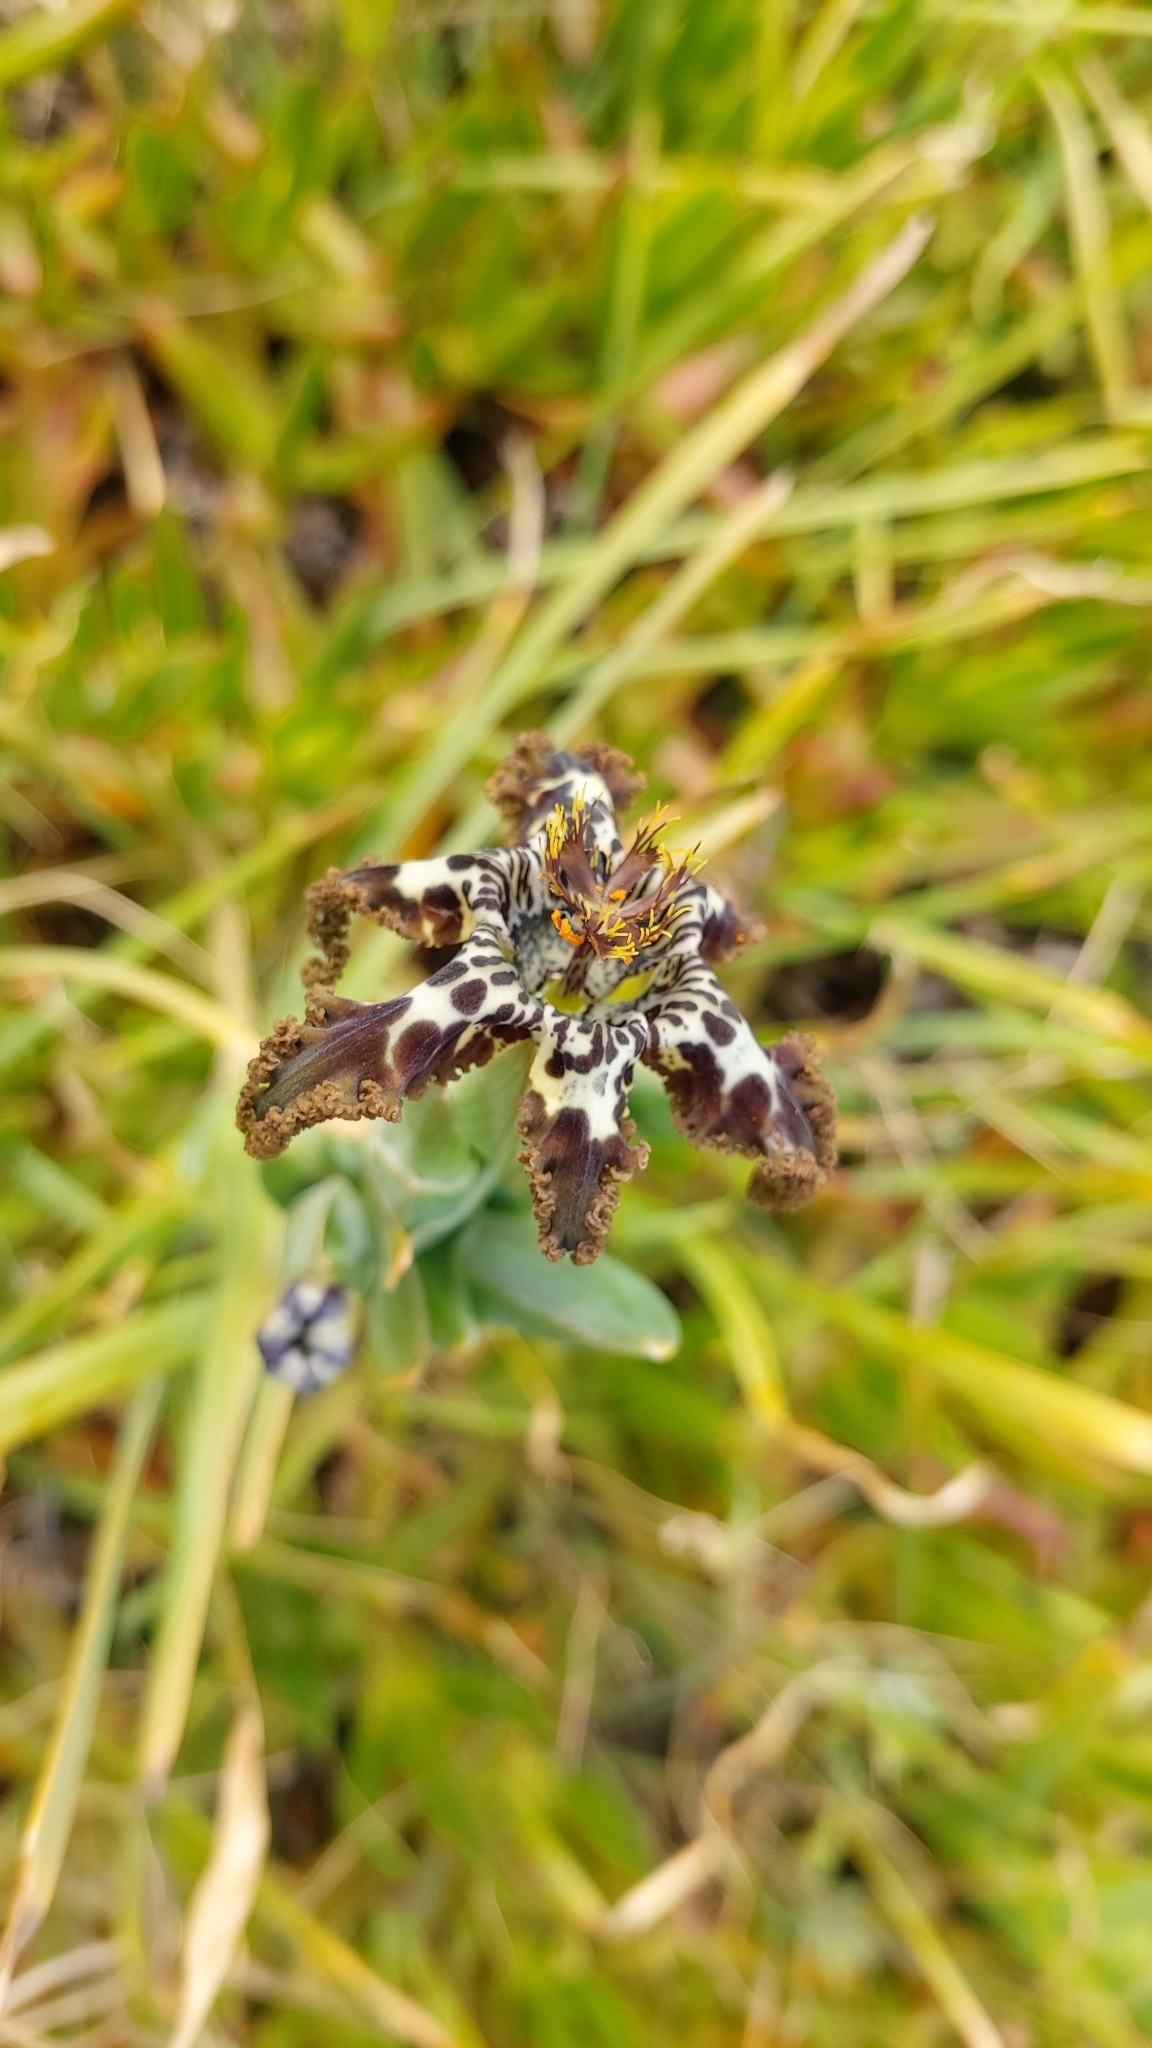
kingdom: Plantae
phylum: Tracheophyta
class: Liliopsida
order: Asparagales
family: Iridaceae
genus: Ferraria
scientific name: Ferraria crispa
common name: Black-flag
